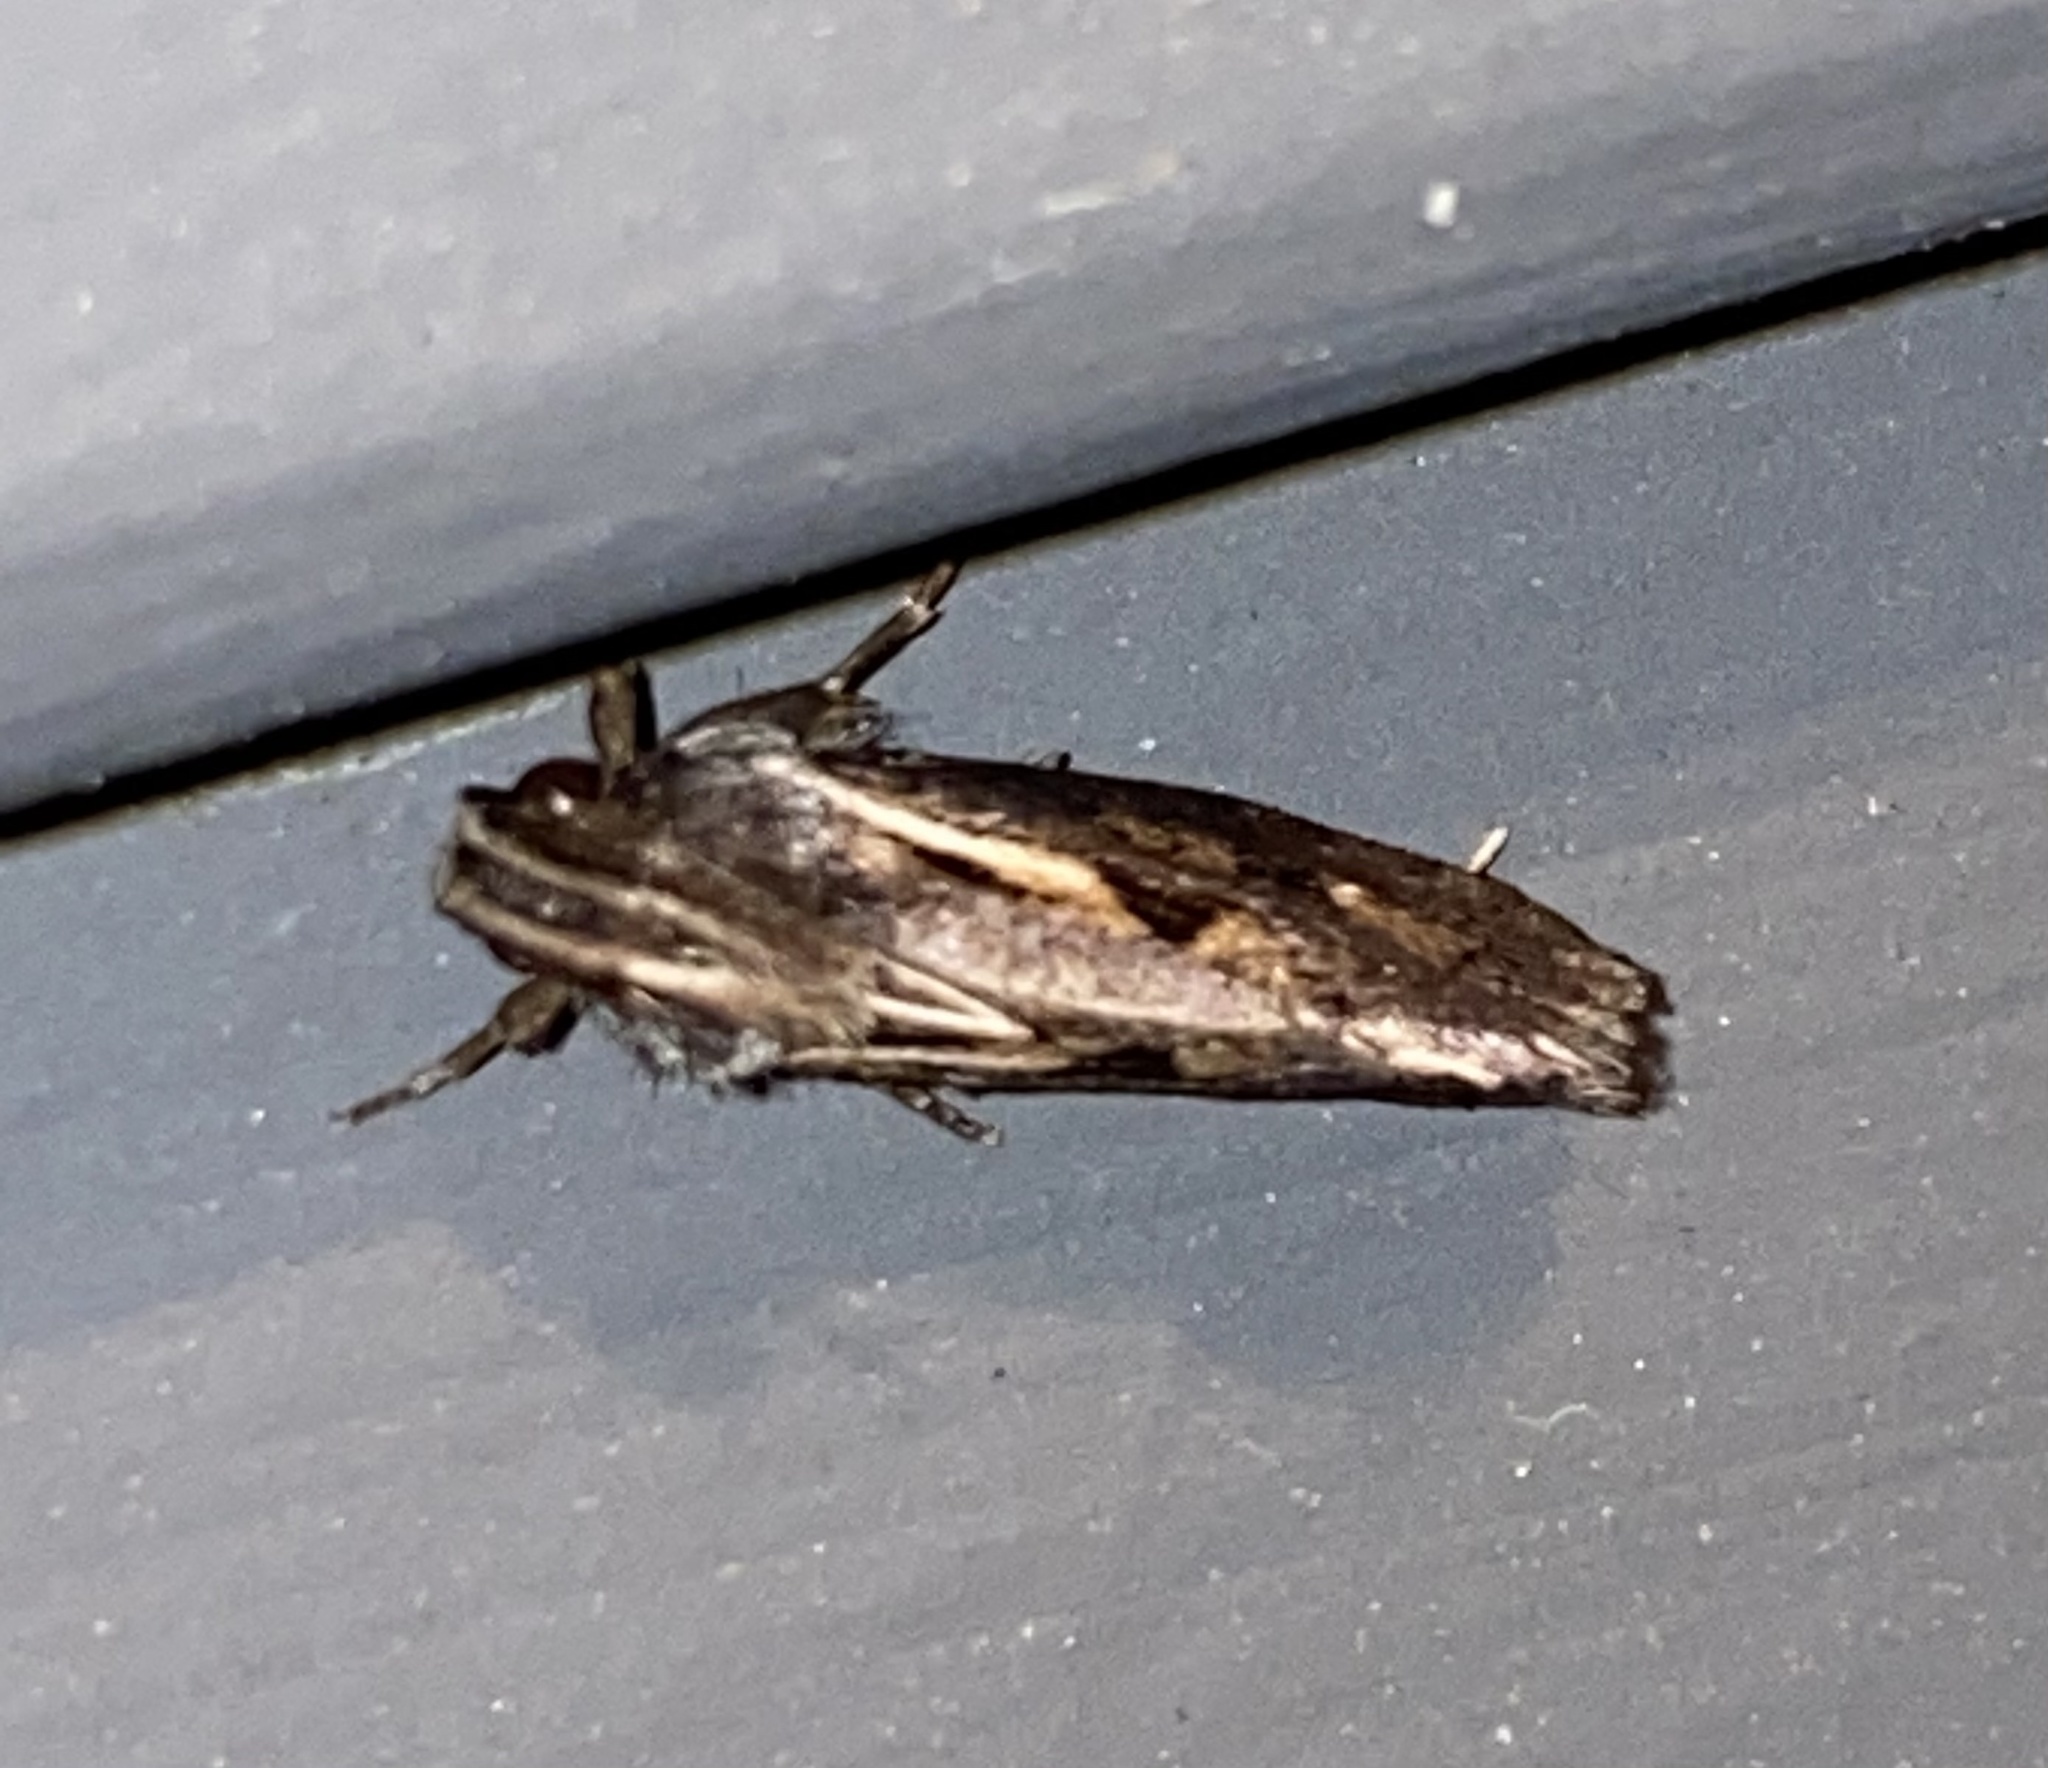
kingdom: Animalia
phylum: Arthropoda
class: Insecta
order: Lepidoptera
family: Tineidae
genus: Acrolophus
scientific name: Acrolophus popeanella
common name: Clemens' grass tubeworm moth
